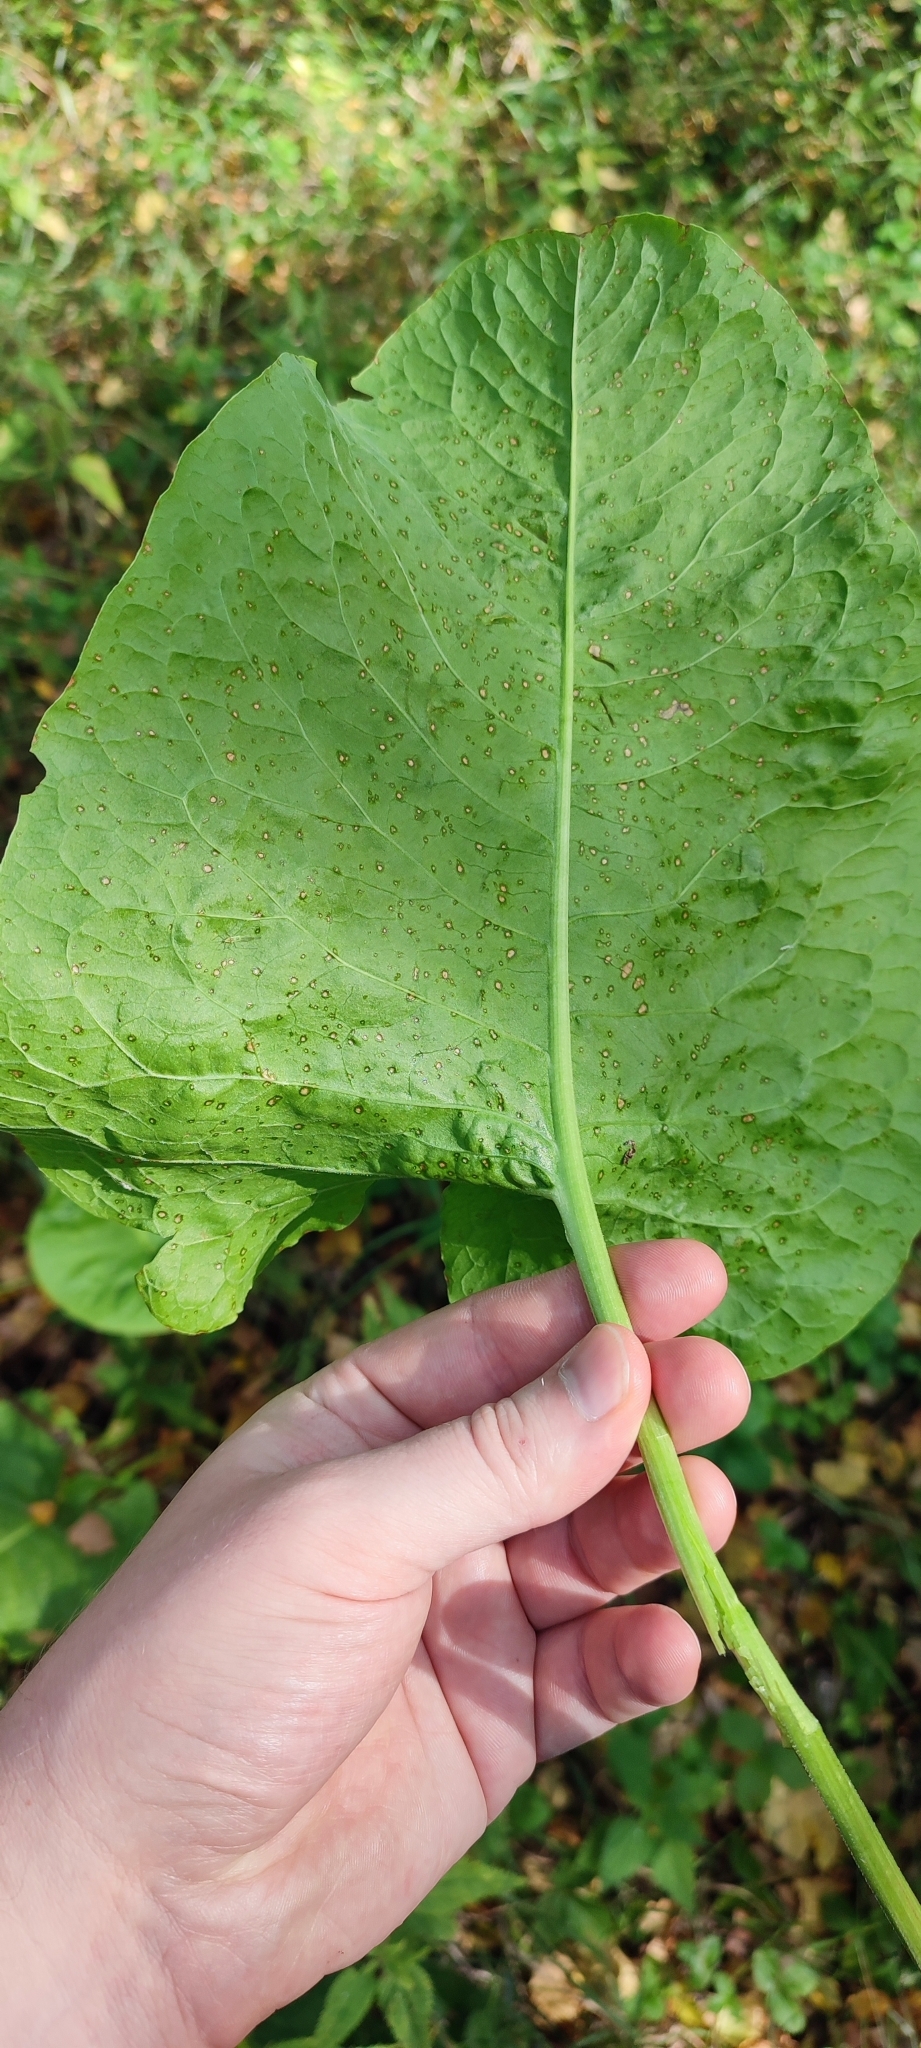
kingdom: Plantae
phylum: Tracheophyta
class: Magnoliopsida
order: Caryophyllales
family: Polygonaceae
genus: Rumex
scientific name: Rumex confertus
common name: Russian dock
